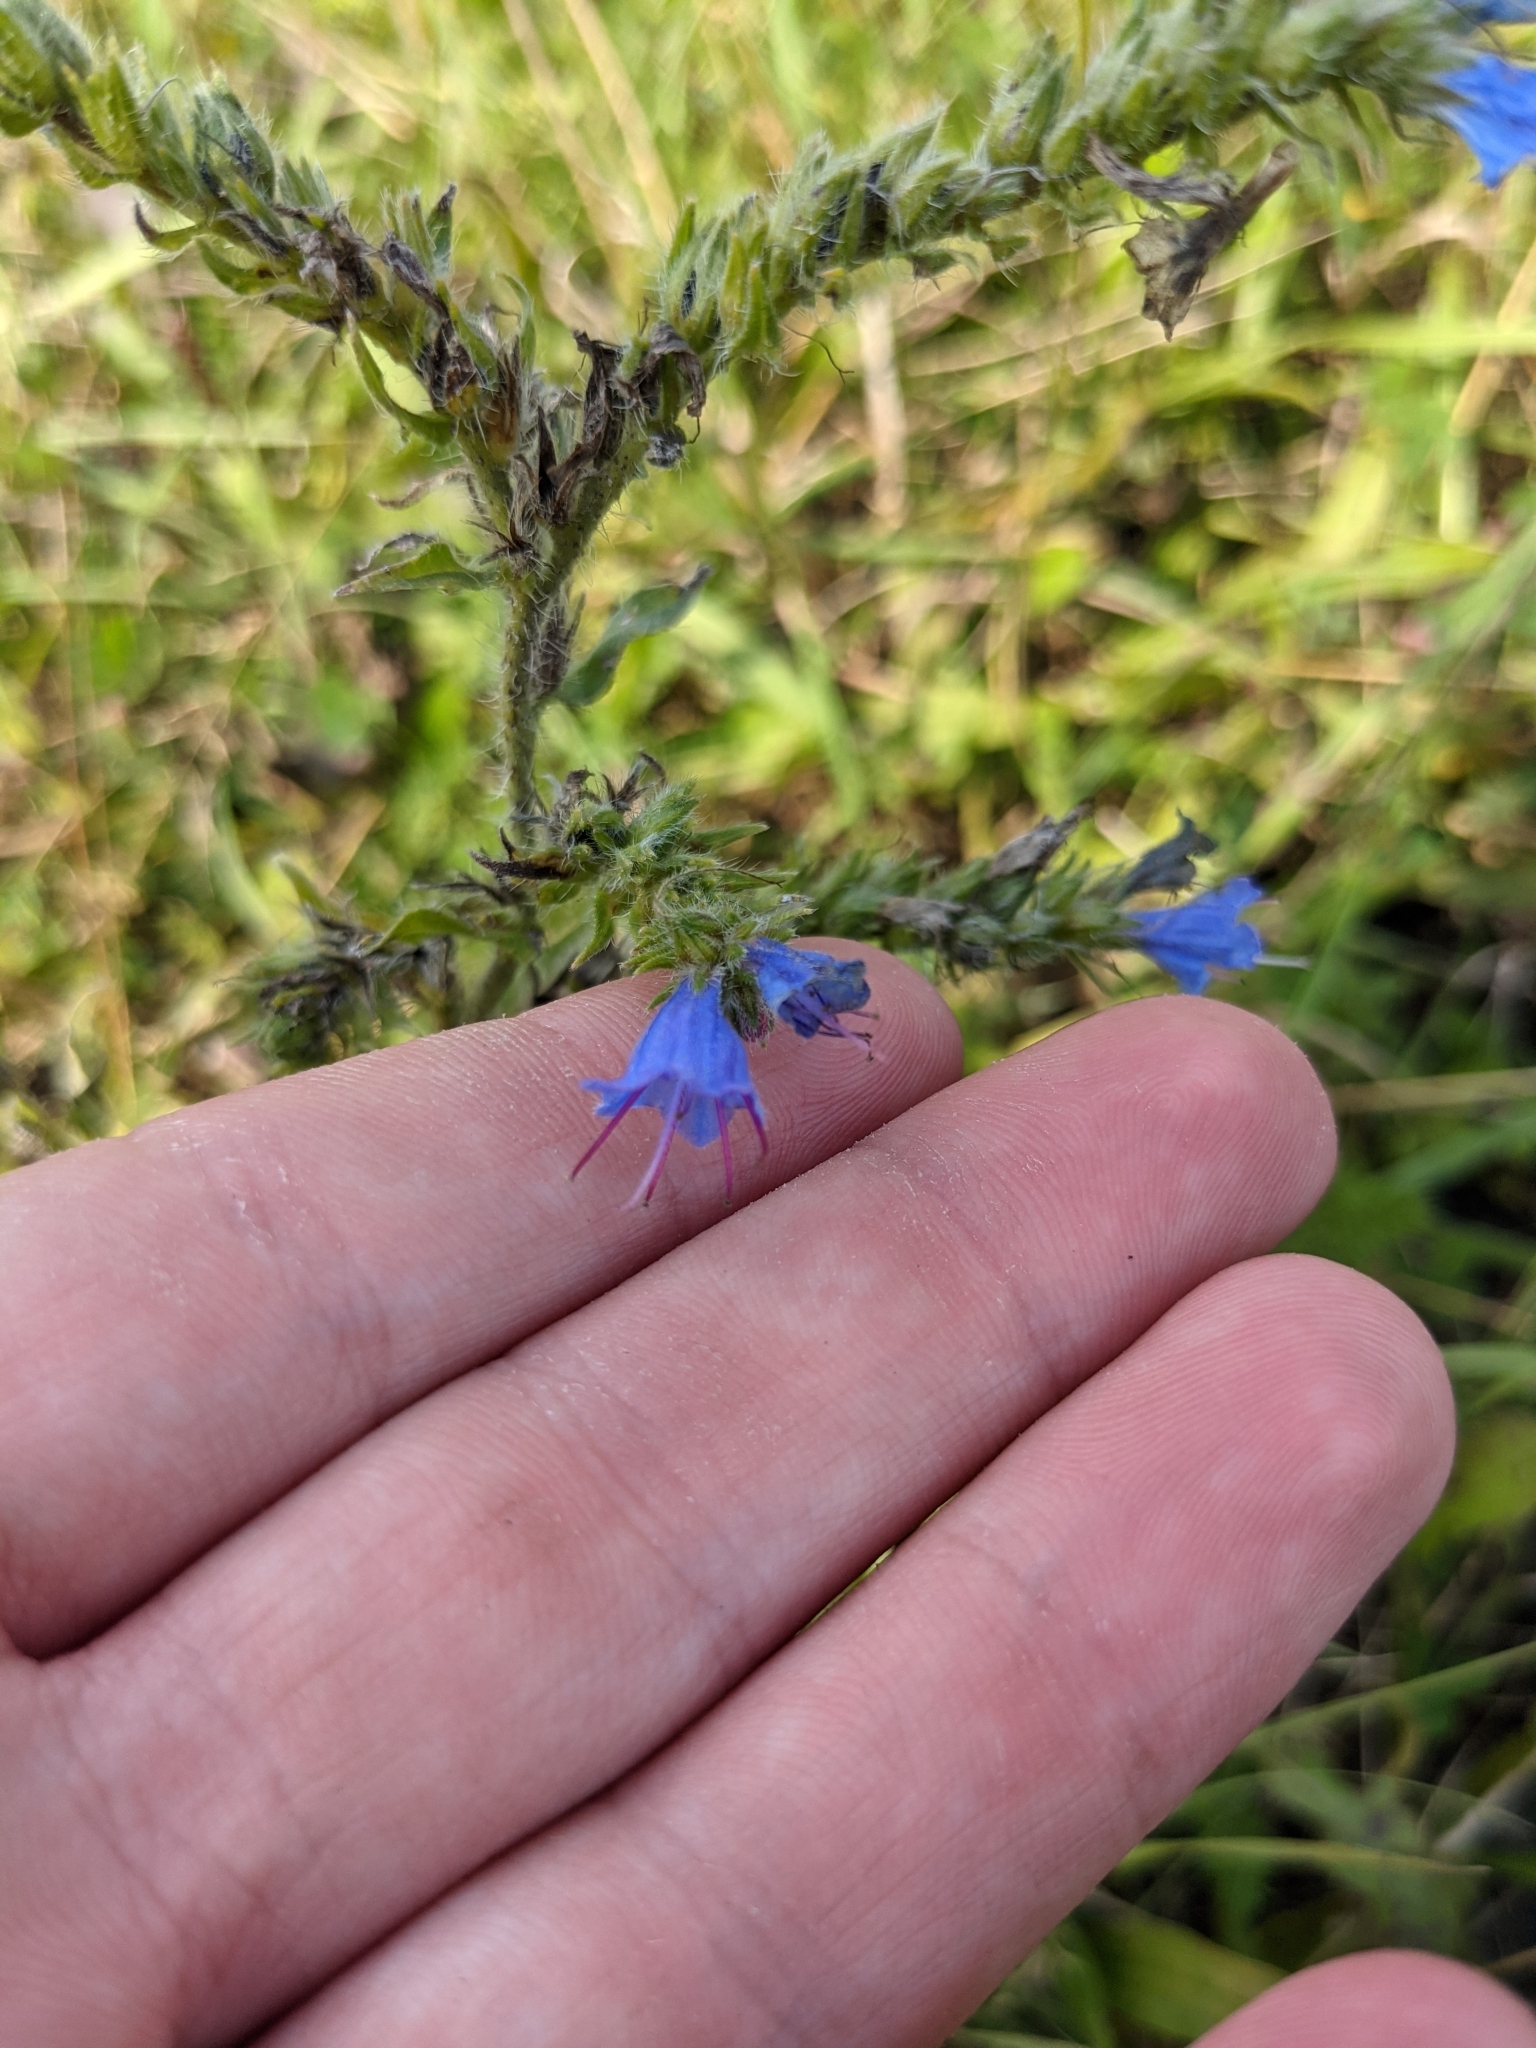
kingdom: Plantae
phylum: Tracheophyta
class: Magnoliopsida
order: Boraginales
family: Boraginaceae
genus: Echium
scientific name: Echium vulgare
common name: Common viper's bugloss
